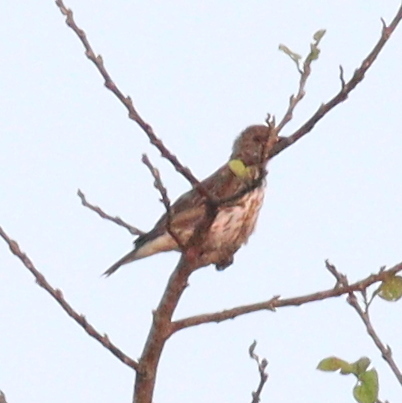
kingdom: Animalia
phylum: Chordata
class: Aves
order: Passeriformes
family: Sturnidae
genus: Cinnyricinclus
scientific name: Cinnyricinclus leucogaster
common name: Violet-backed starling
